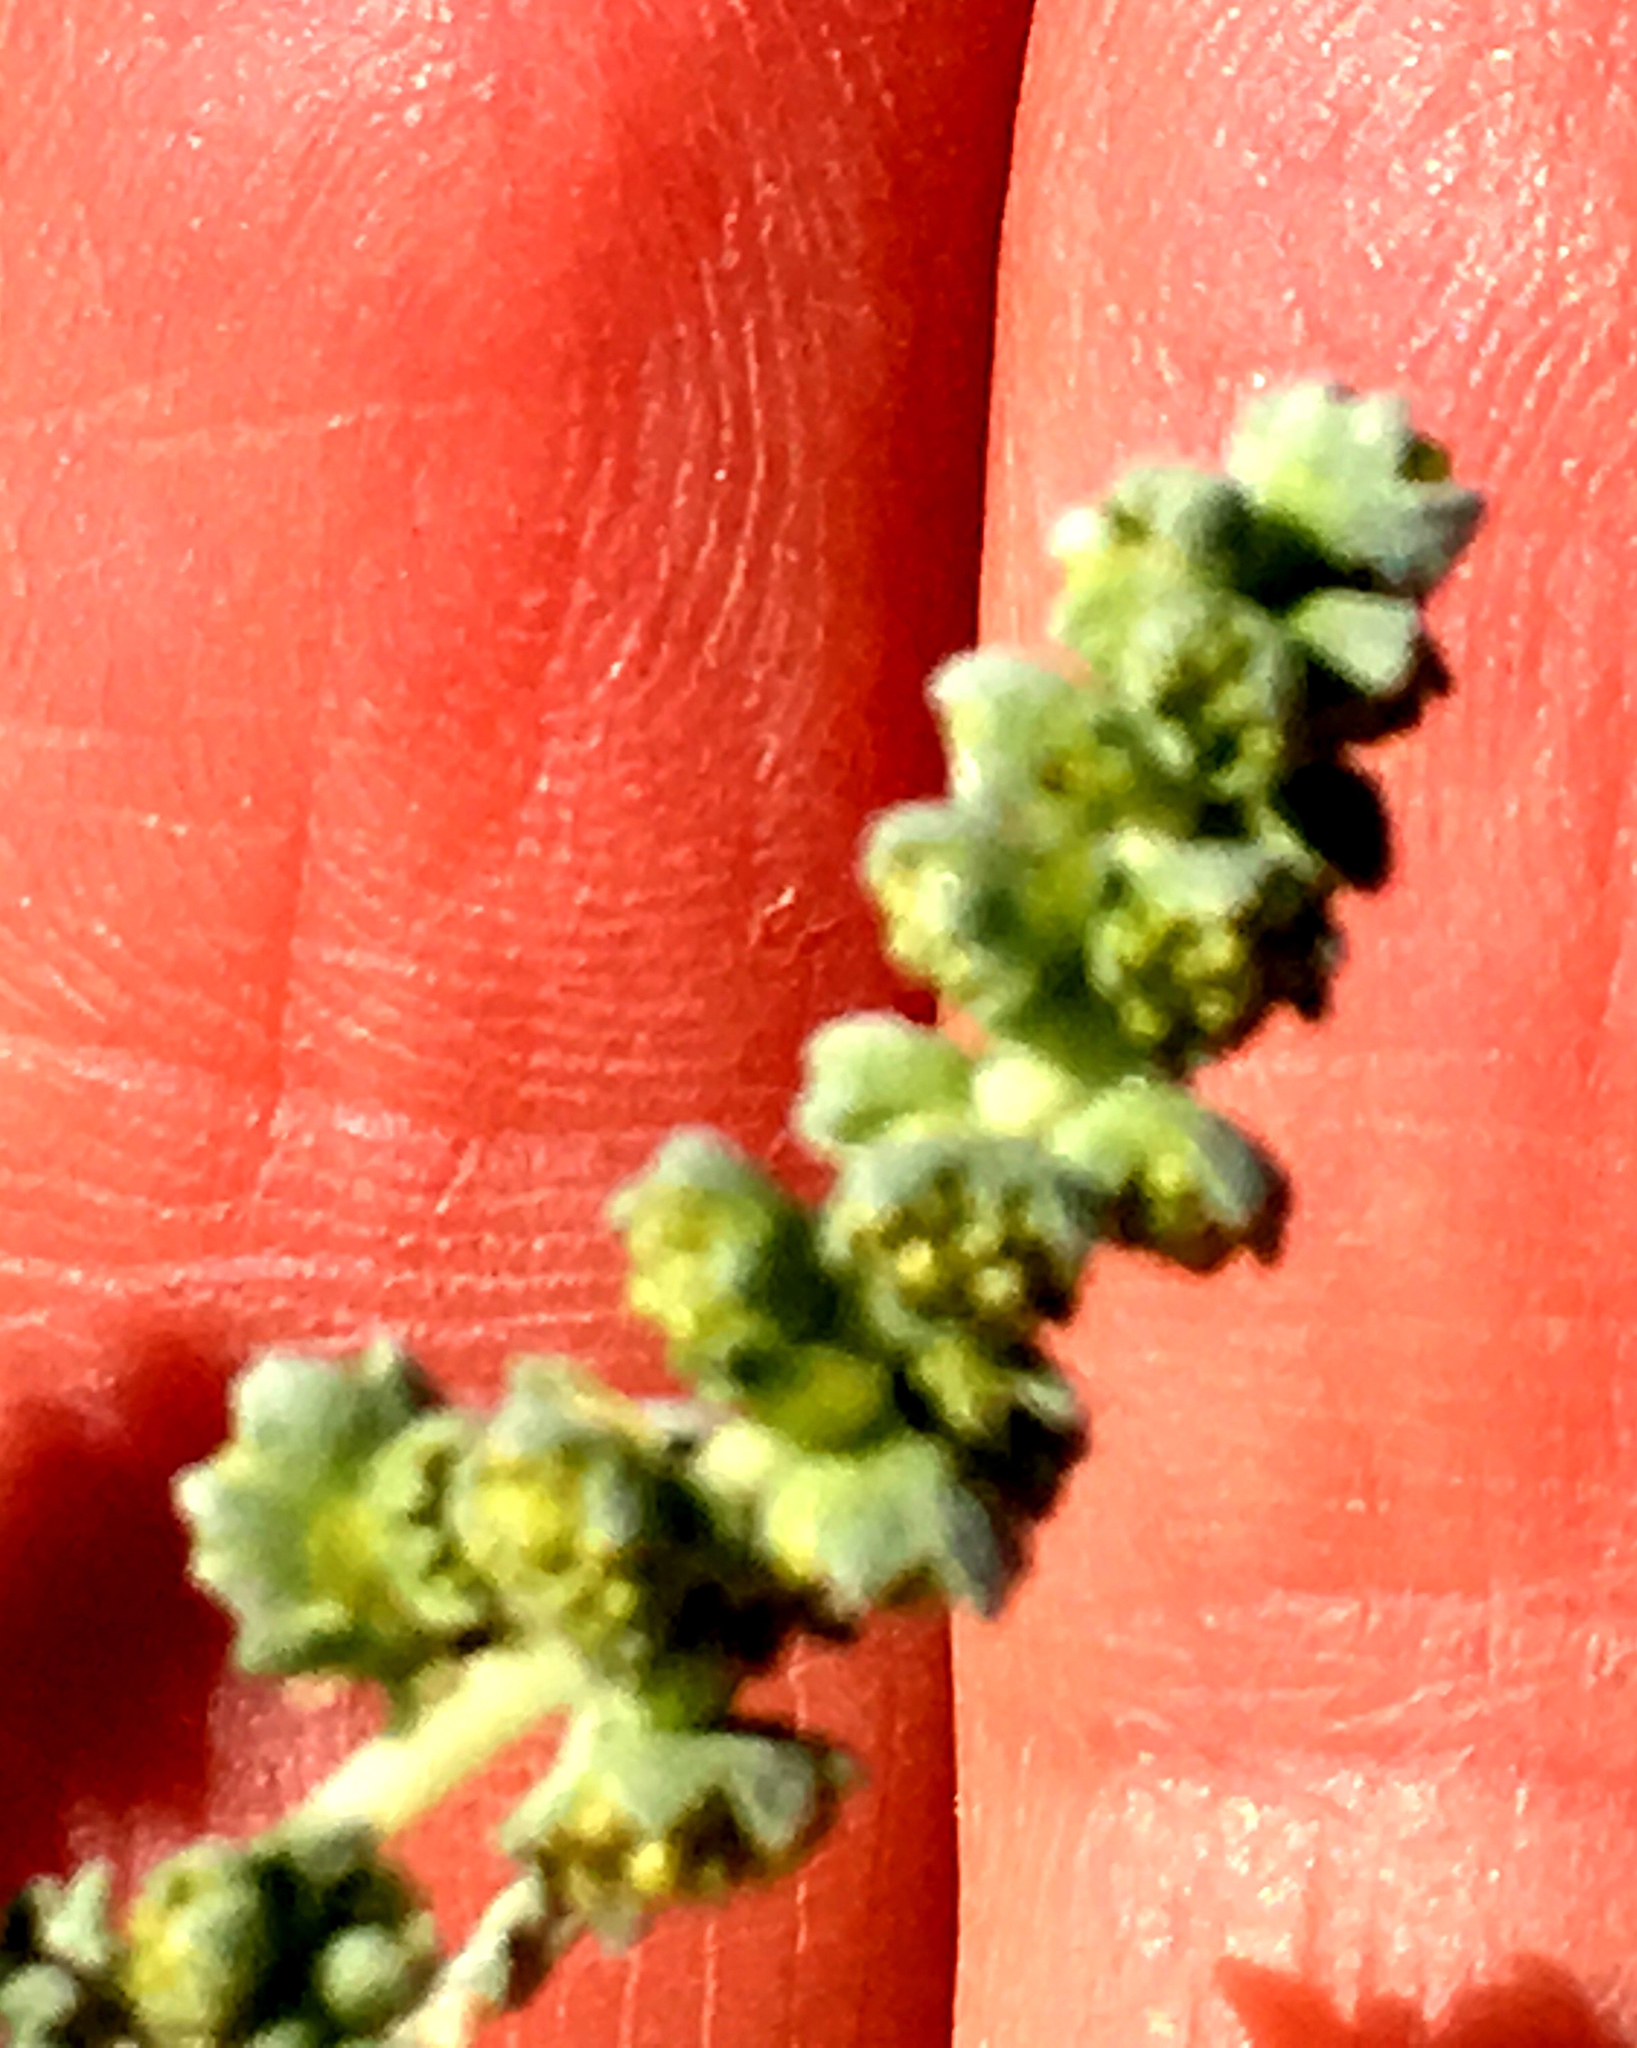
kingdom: Plantae
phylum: Tracheophyta
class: Magnoliopsida
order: Asterales
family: Asteraceae
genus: Ambrosia
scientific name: Ambrosia dumosa
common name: Bur-sage
